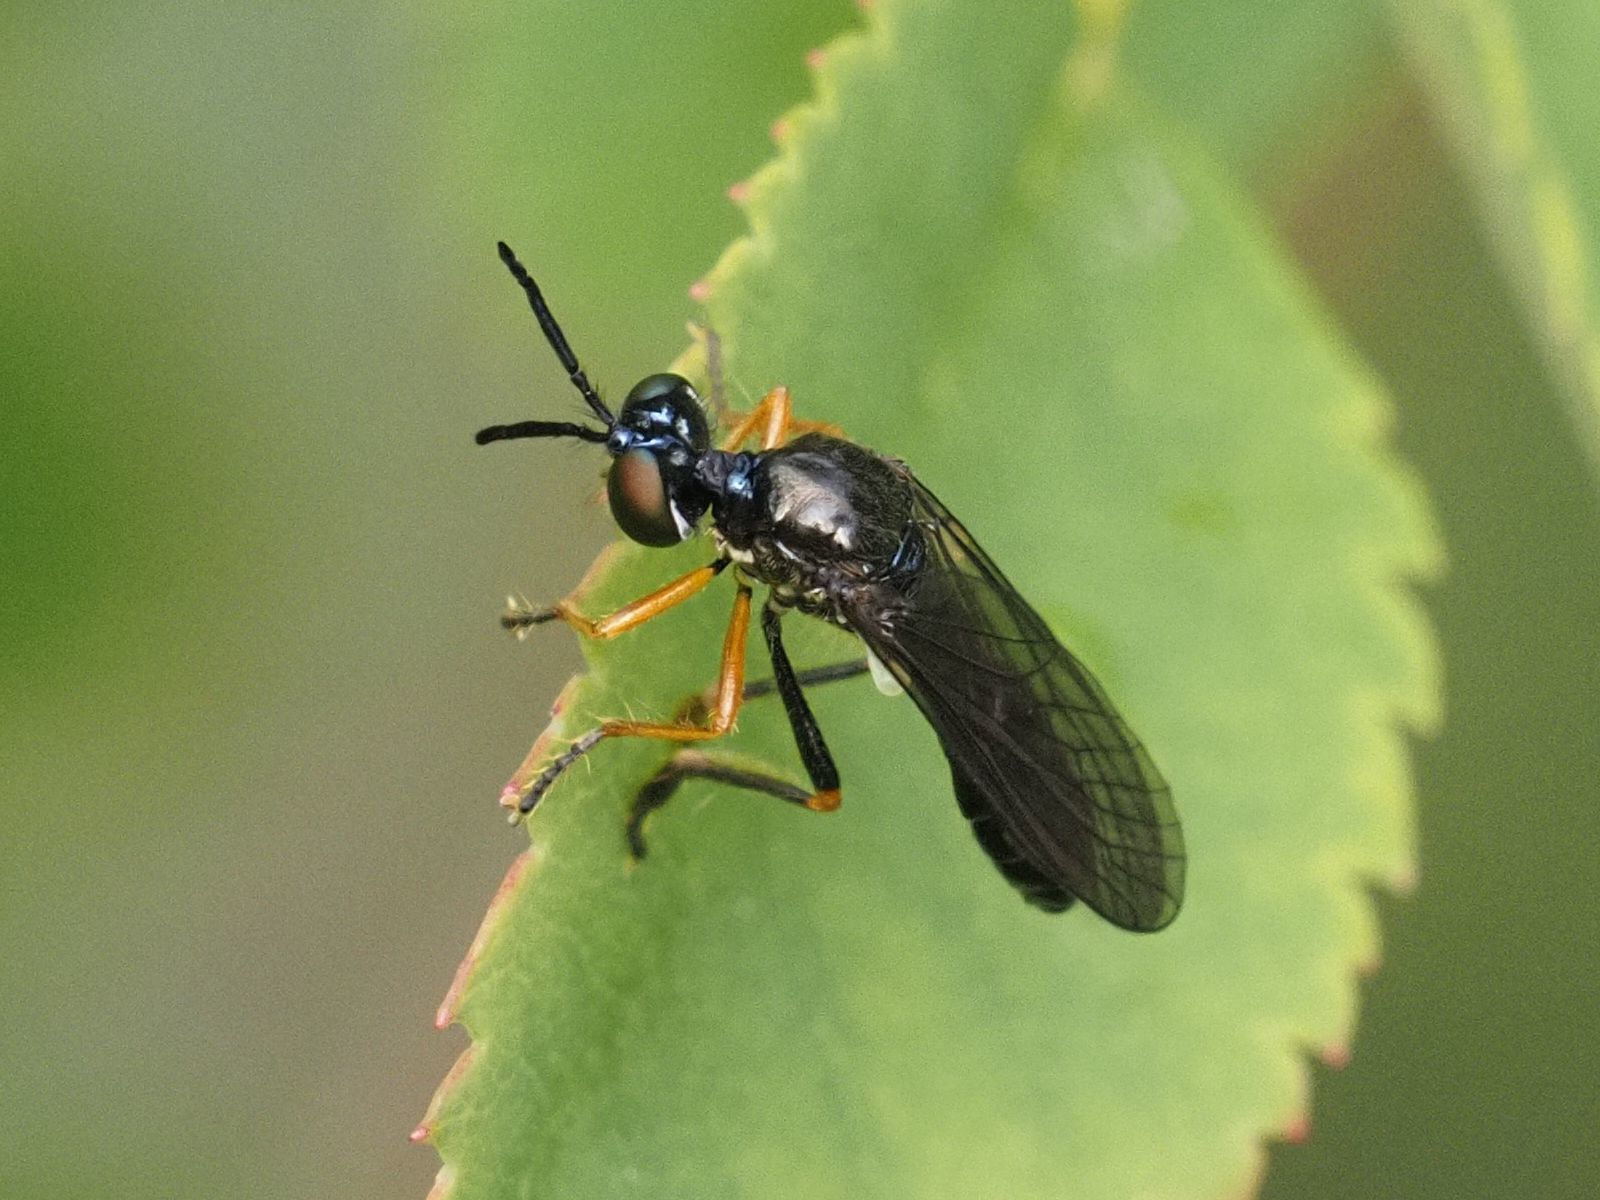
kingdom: Animalia
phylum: Arthropoda
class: Insecta
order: Diptera
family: Asilidae
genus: Dioctria
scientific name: Dioctria longicornis
